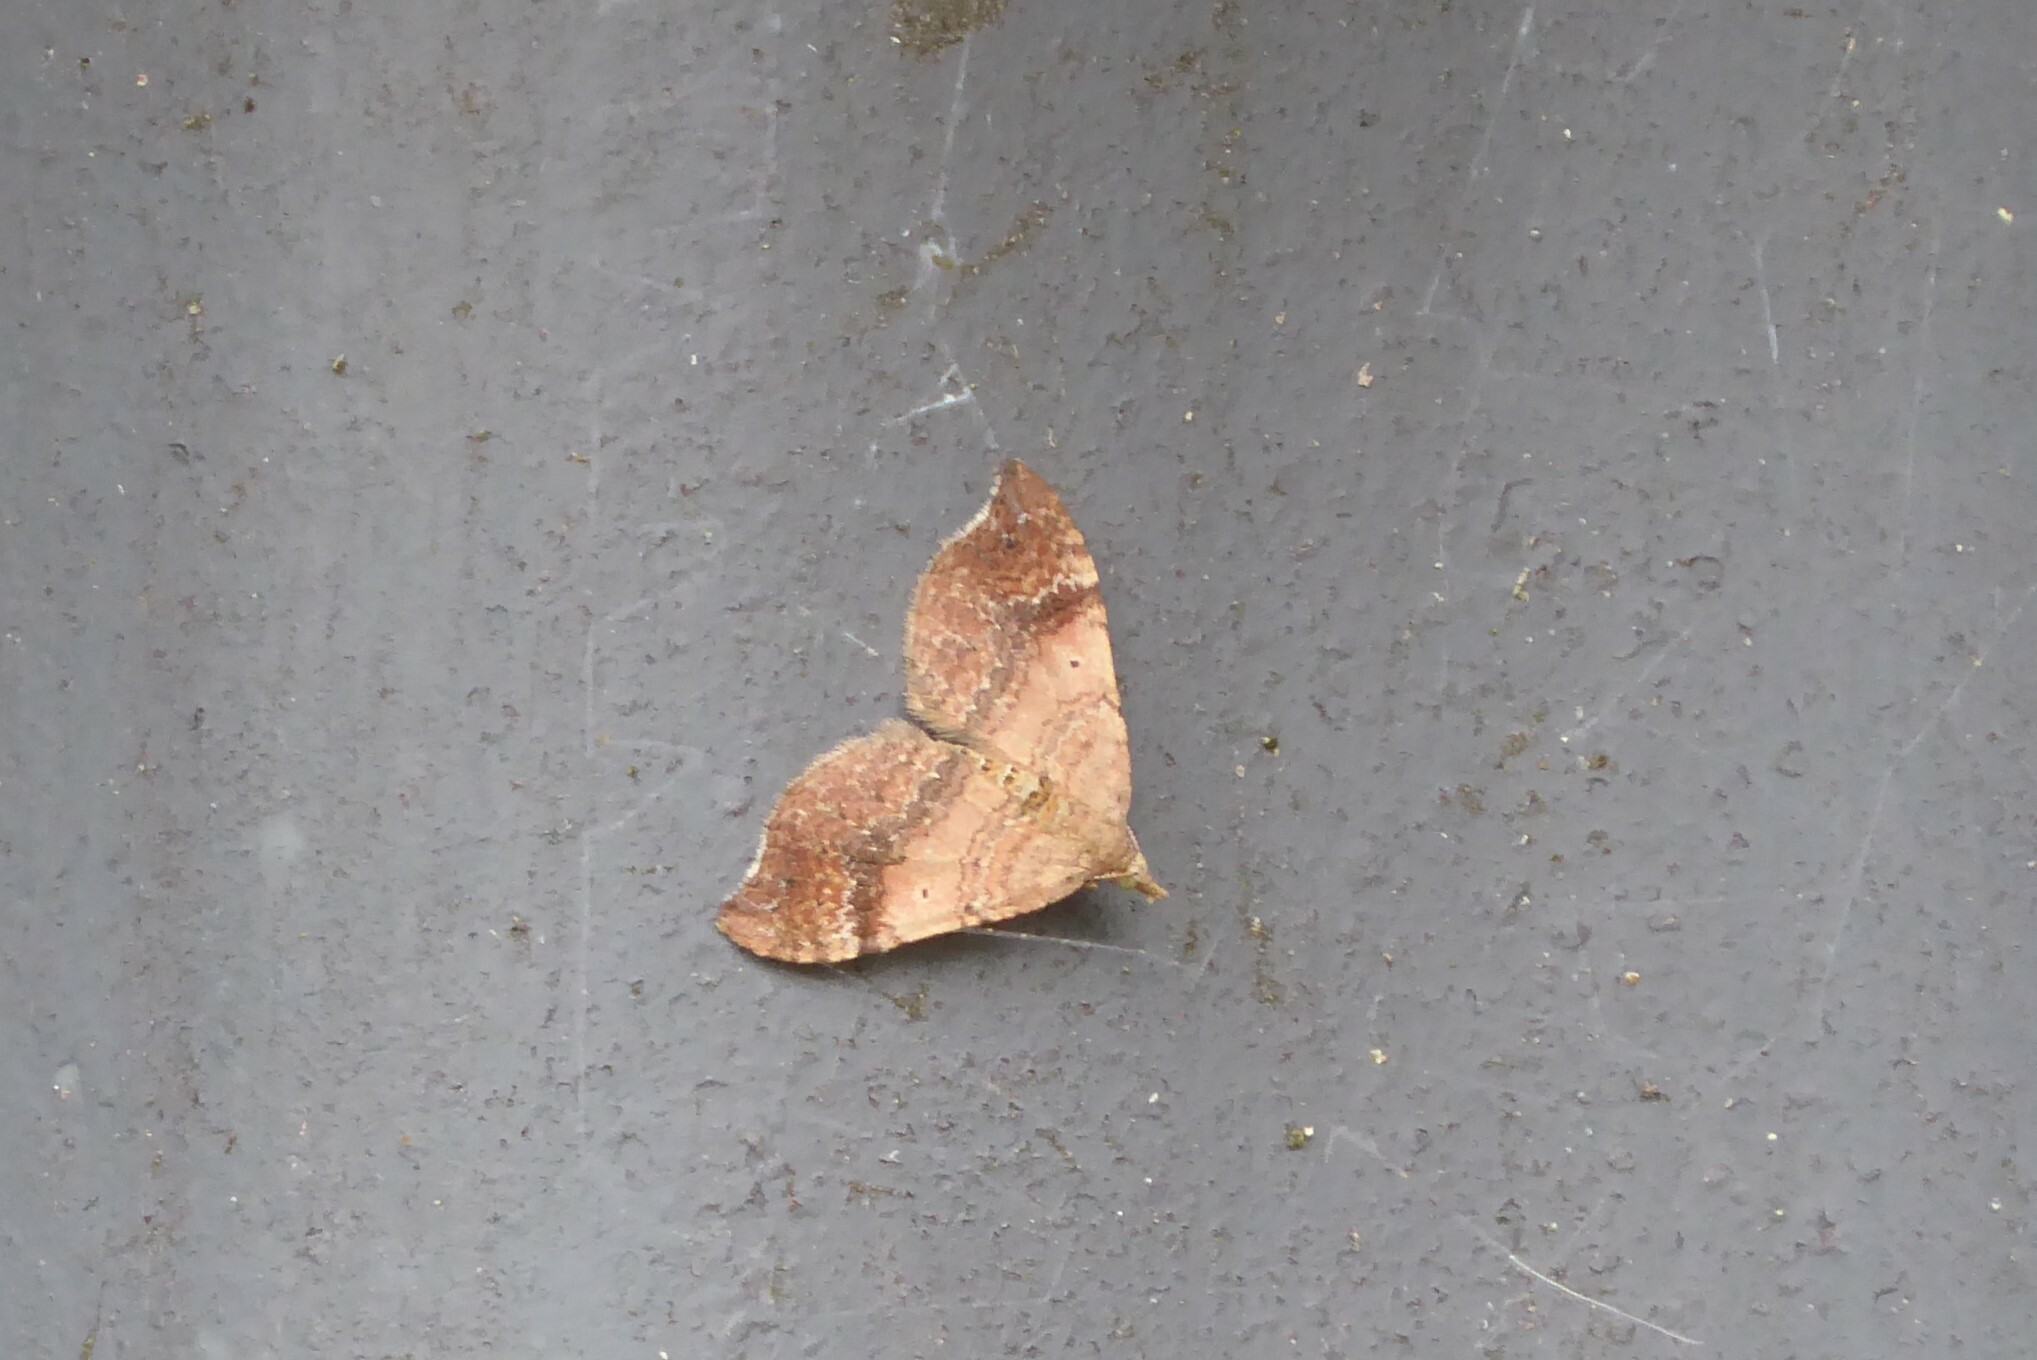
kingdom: Animalia
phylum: Arthropoda
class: Insecta
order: Lepidoptera
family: Geometridae
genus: Homodotis
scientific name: Homodotis megaspilata
